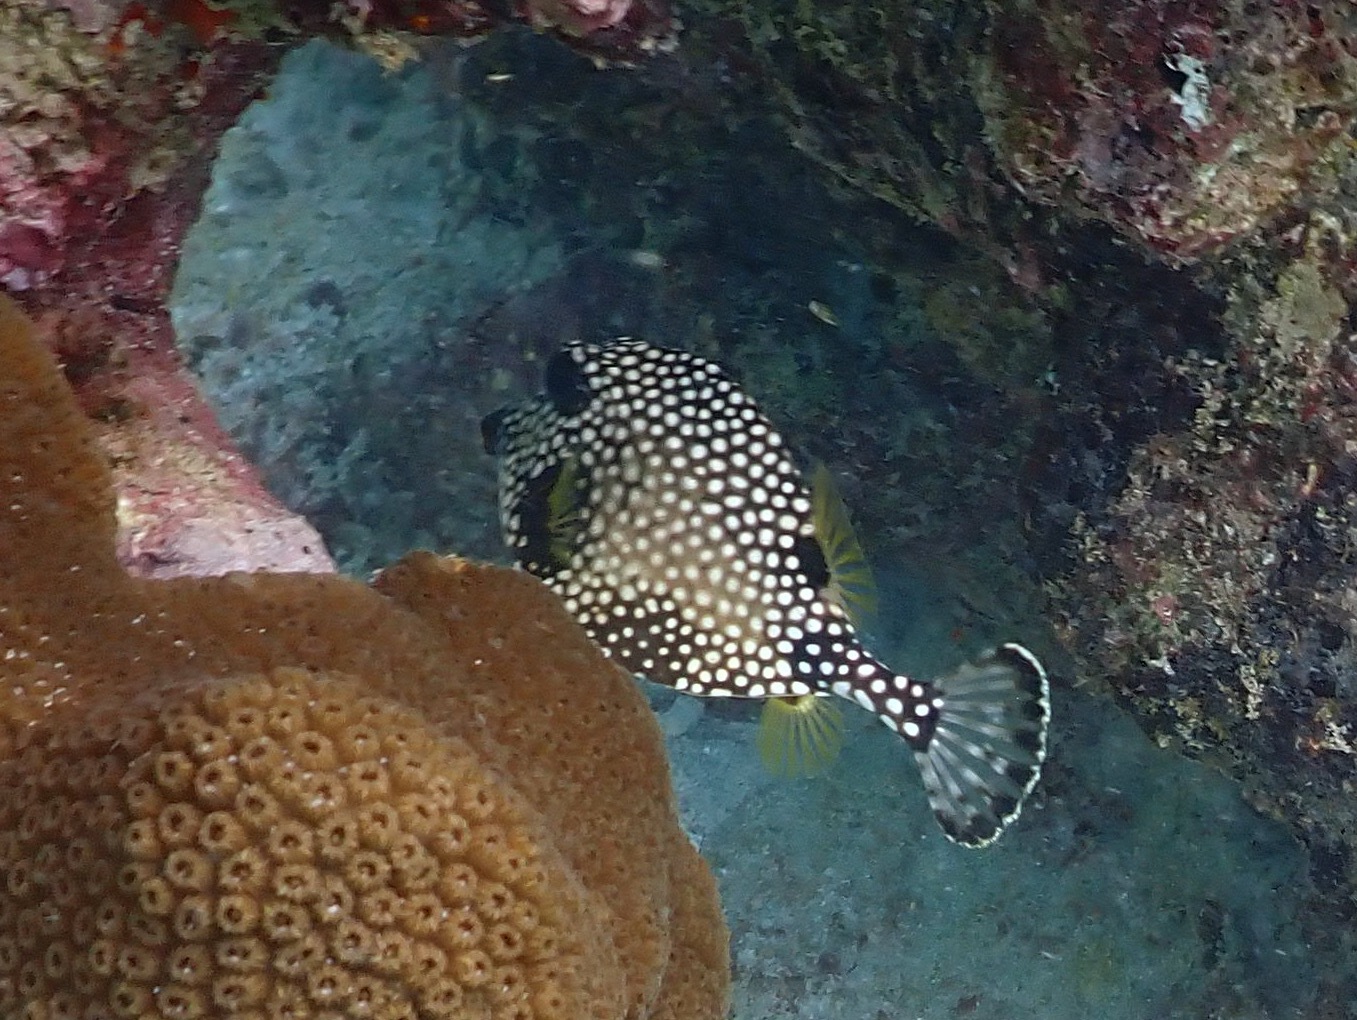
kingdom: Animalia
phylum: Chordata
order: Tetraodontiformes
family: Ostraciidae
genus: Lactophrys
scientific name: Lactophrys triqueter
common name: Smooth trunkfish
